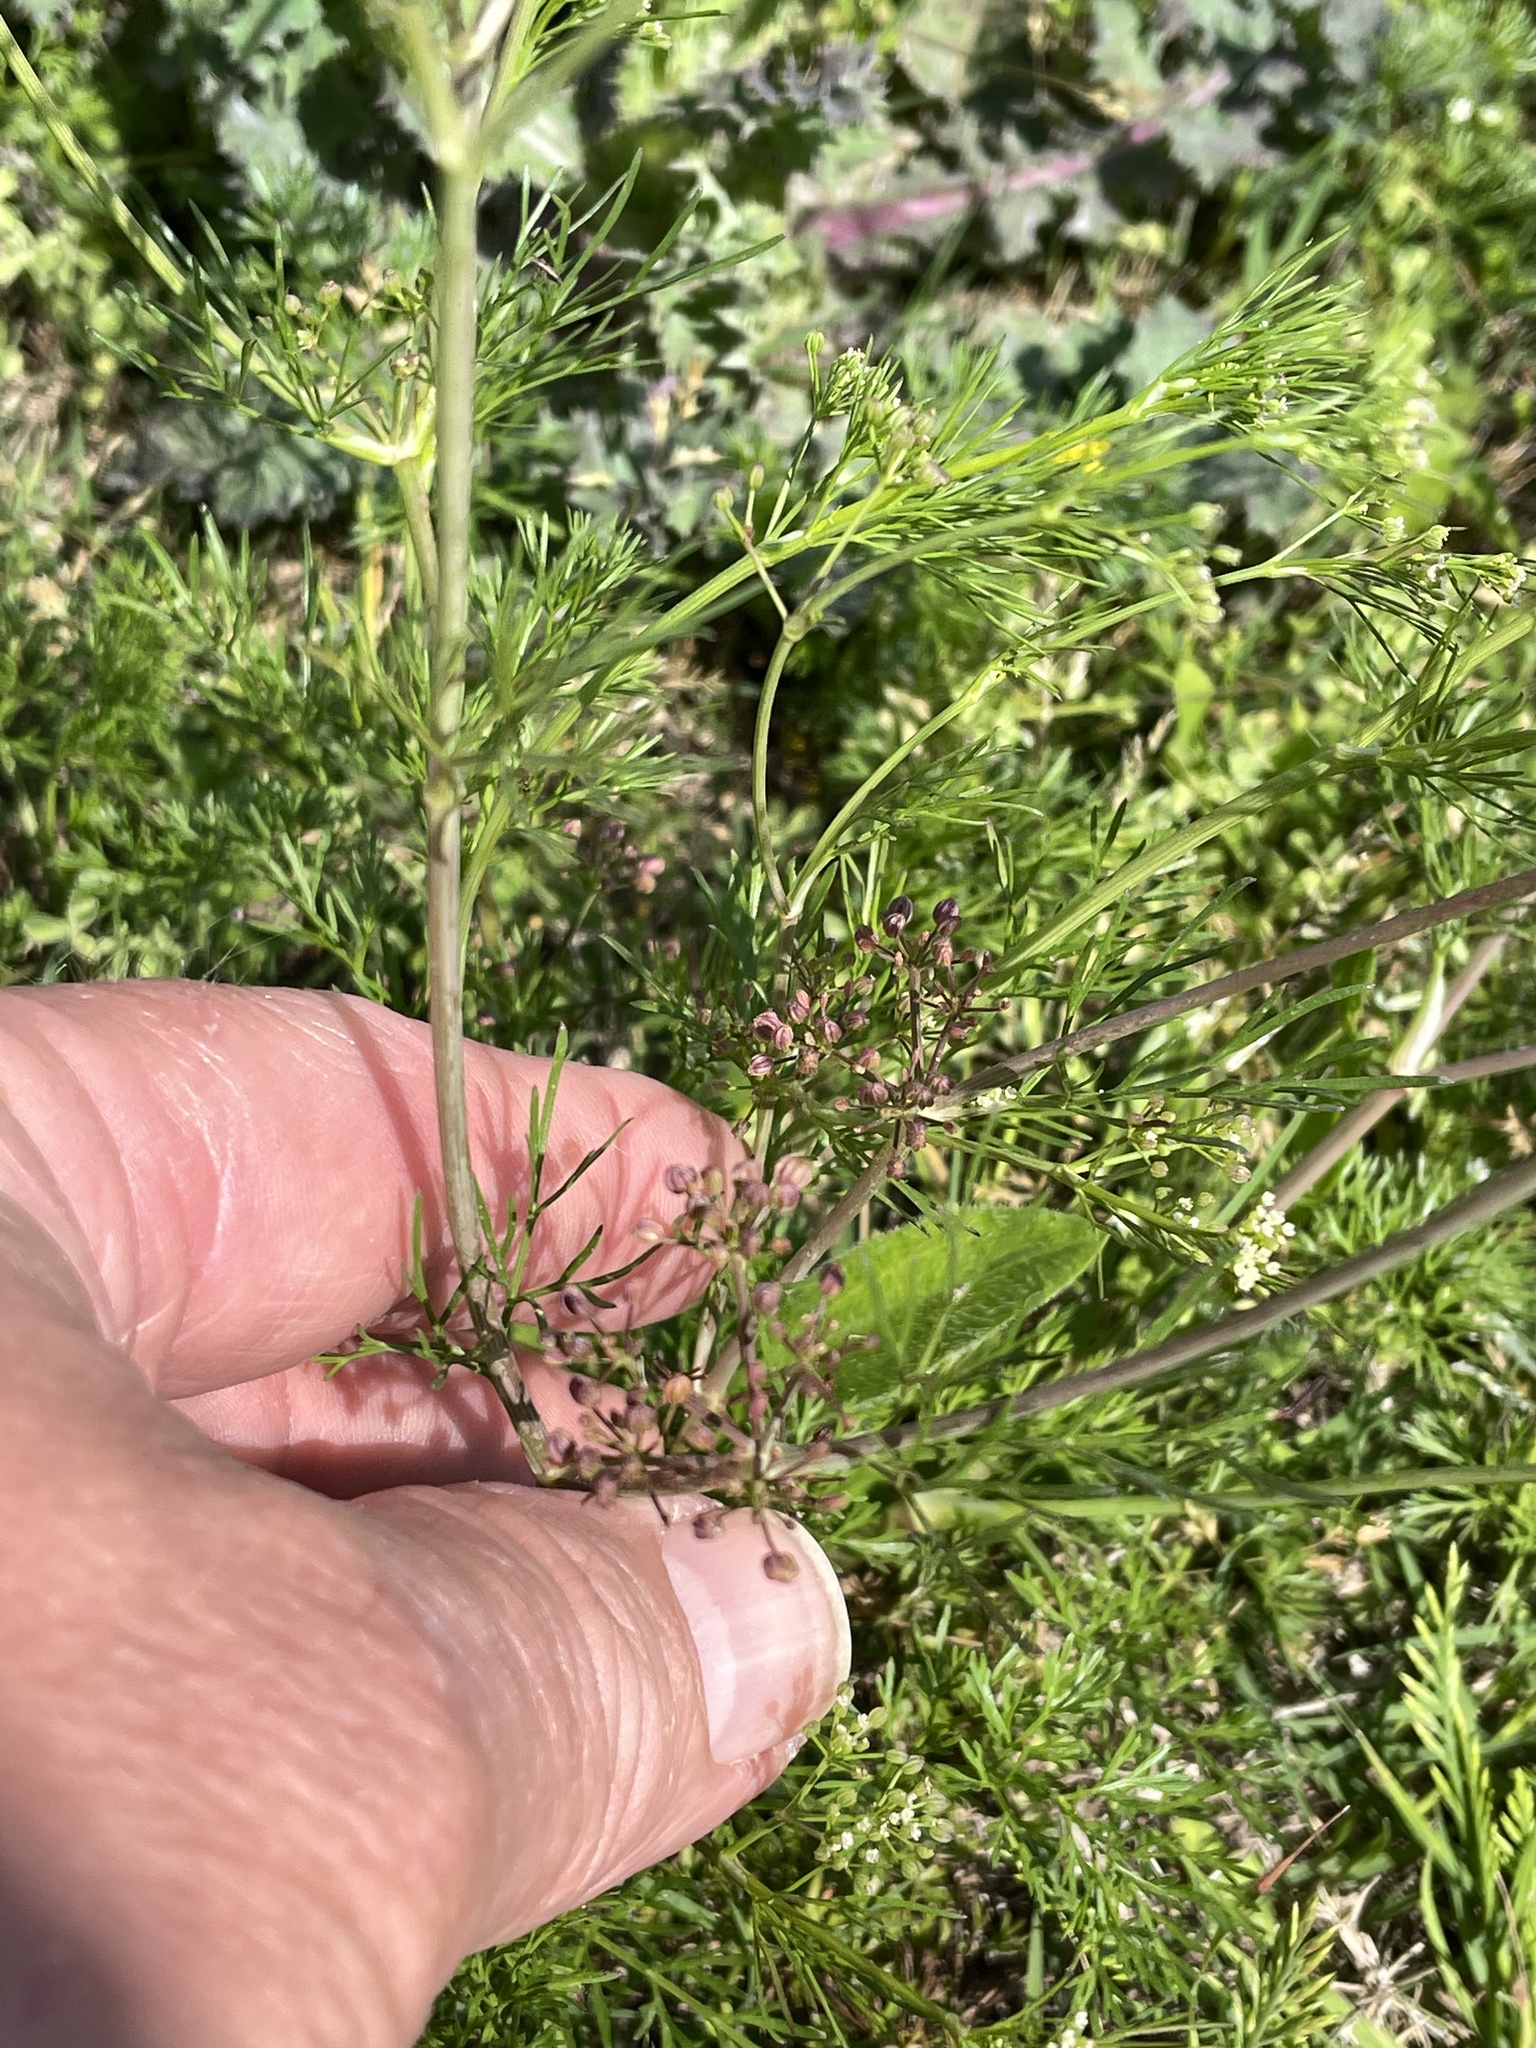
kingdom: Plantae
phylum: Tracheophyta
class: Magnoliopsida
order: Apiales
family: Apiaceae
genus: Cyclospermum
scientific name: Cyclospermum leptophyllum
